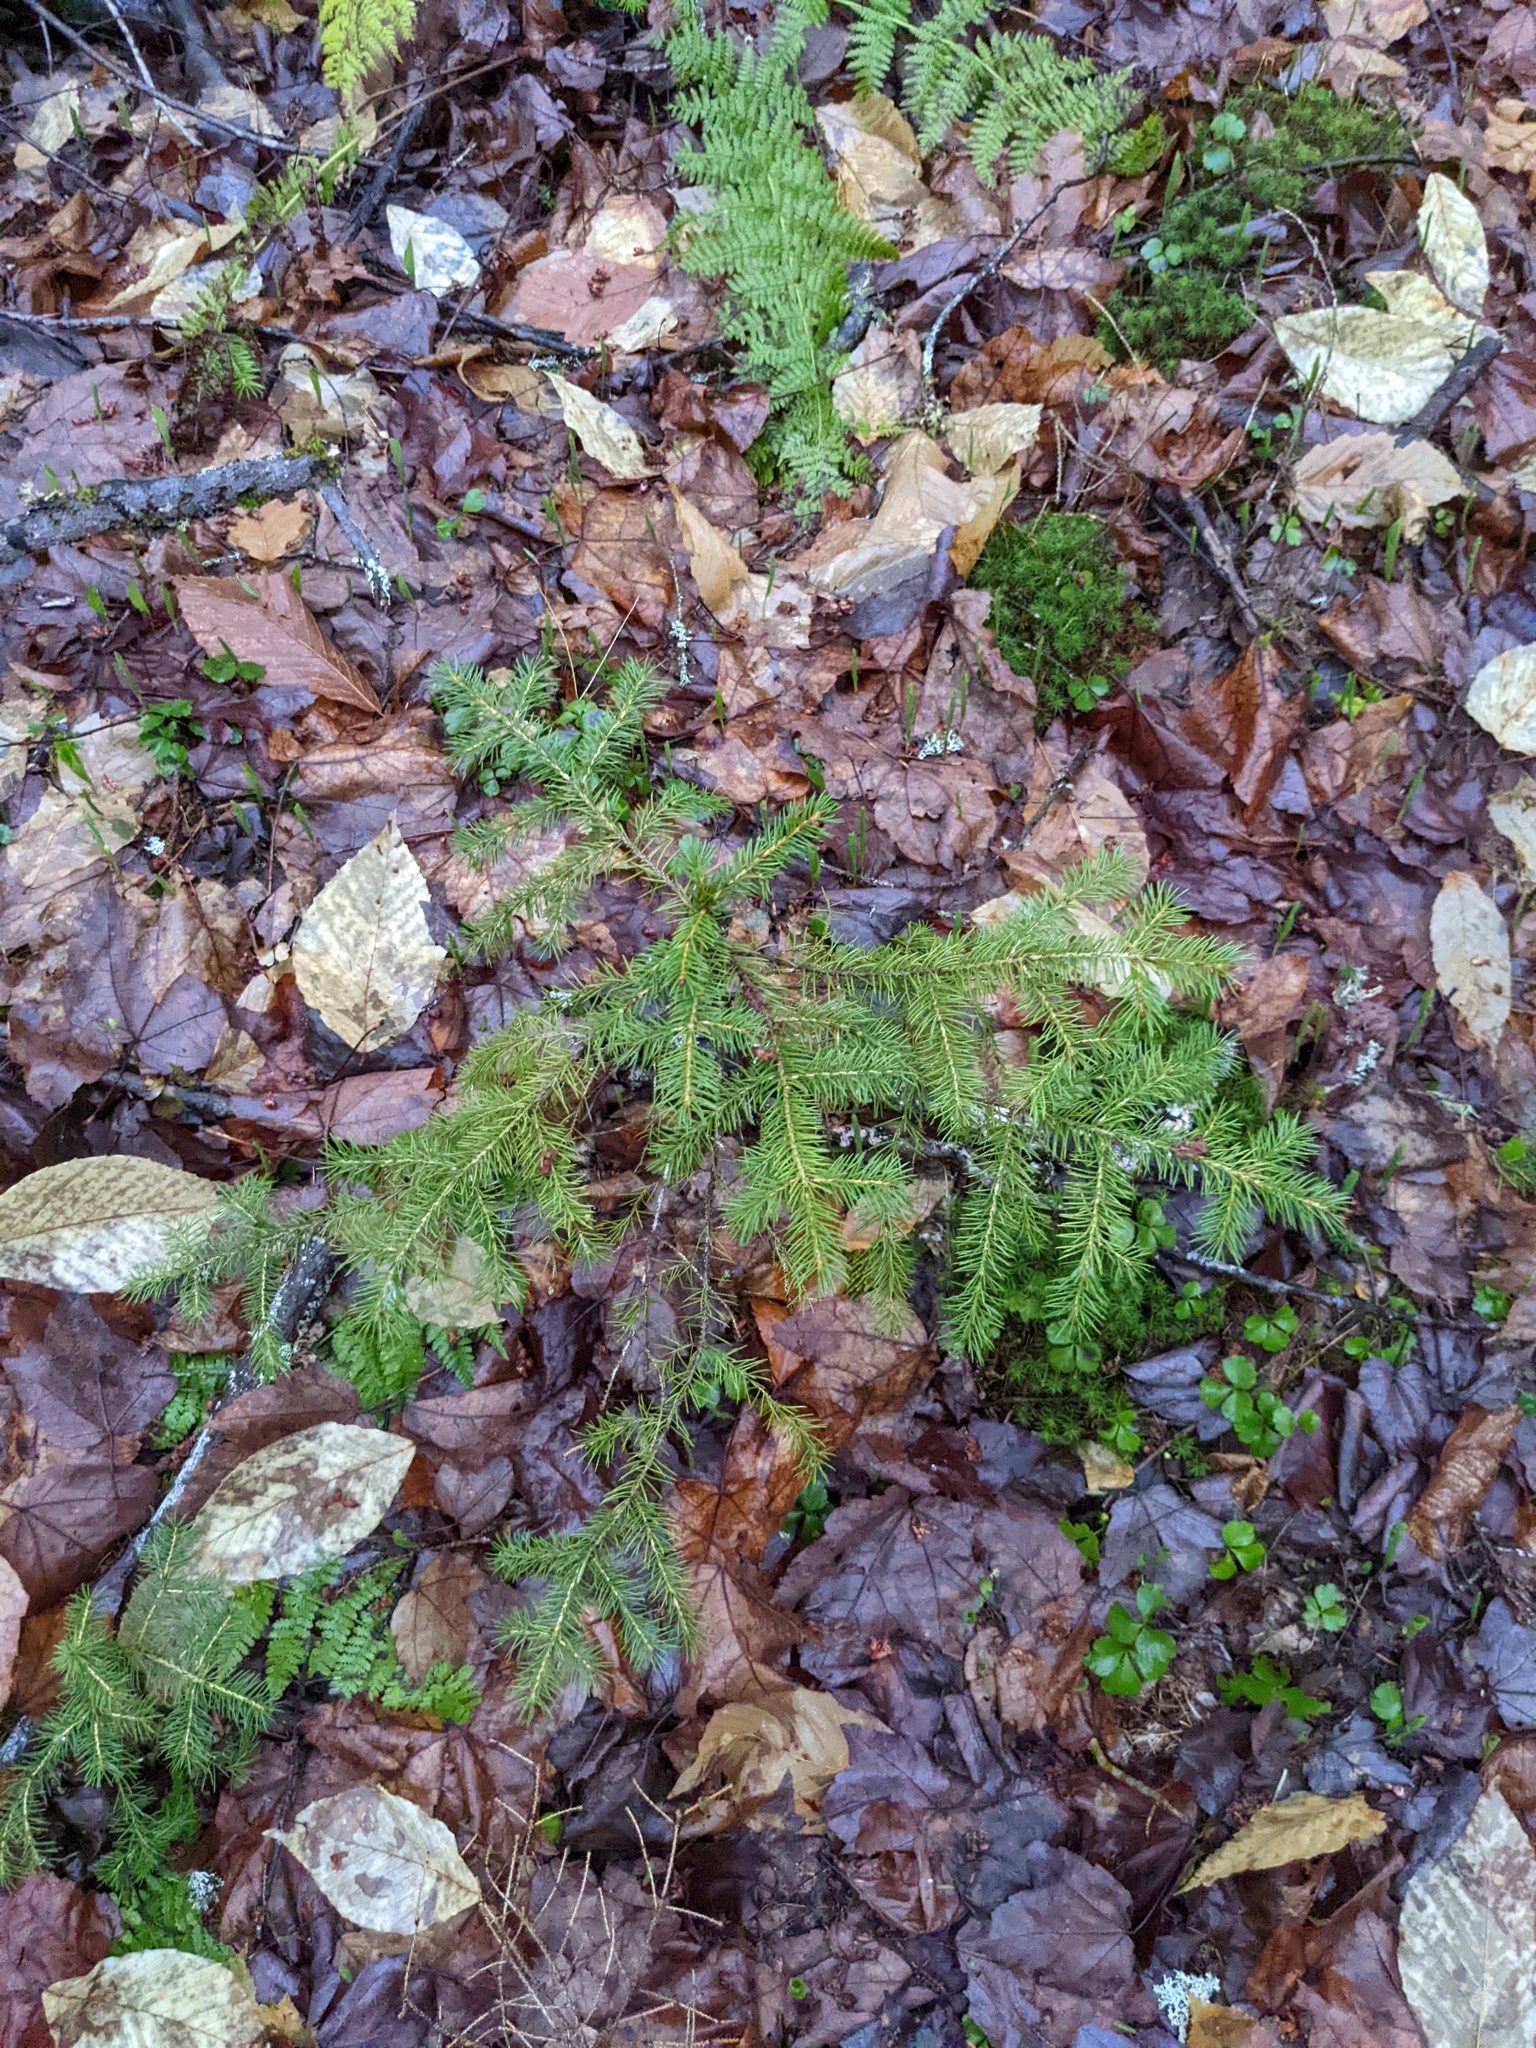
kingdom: Plantae
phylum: Tracheophyta
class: Pinopsida
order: Pinales
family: Pinaceae
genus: Picea
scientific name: Picea rubens
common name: Red spruce
